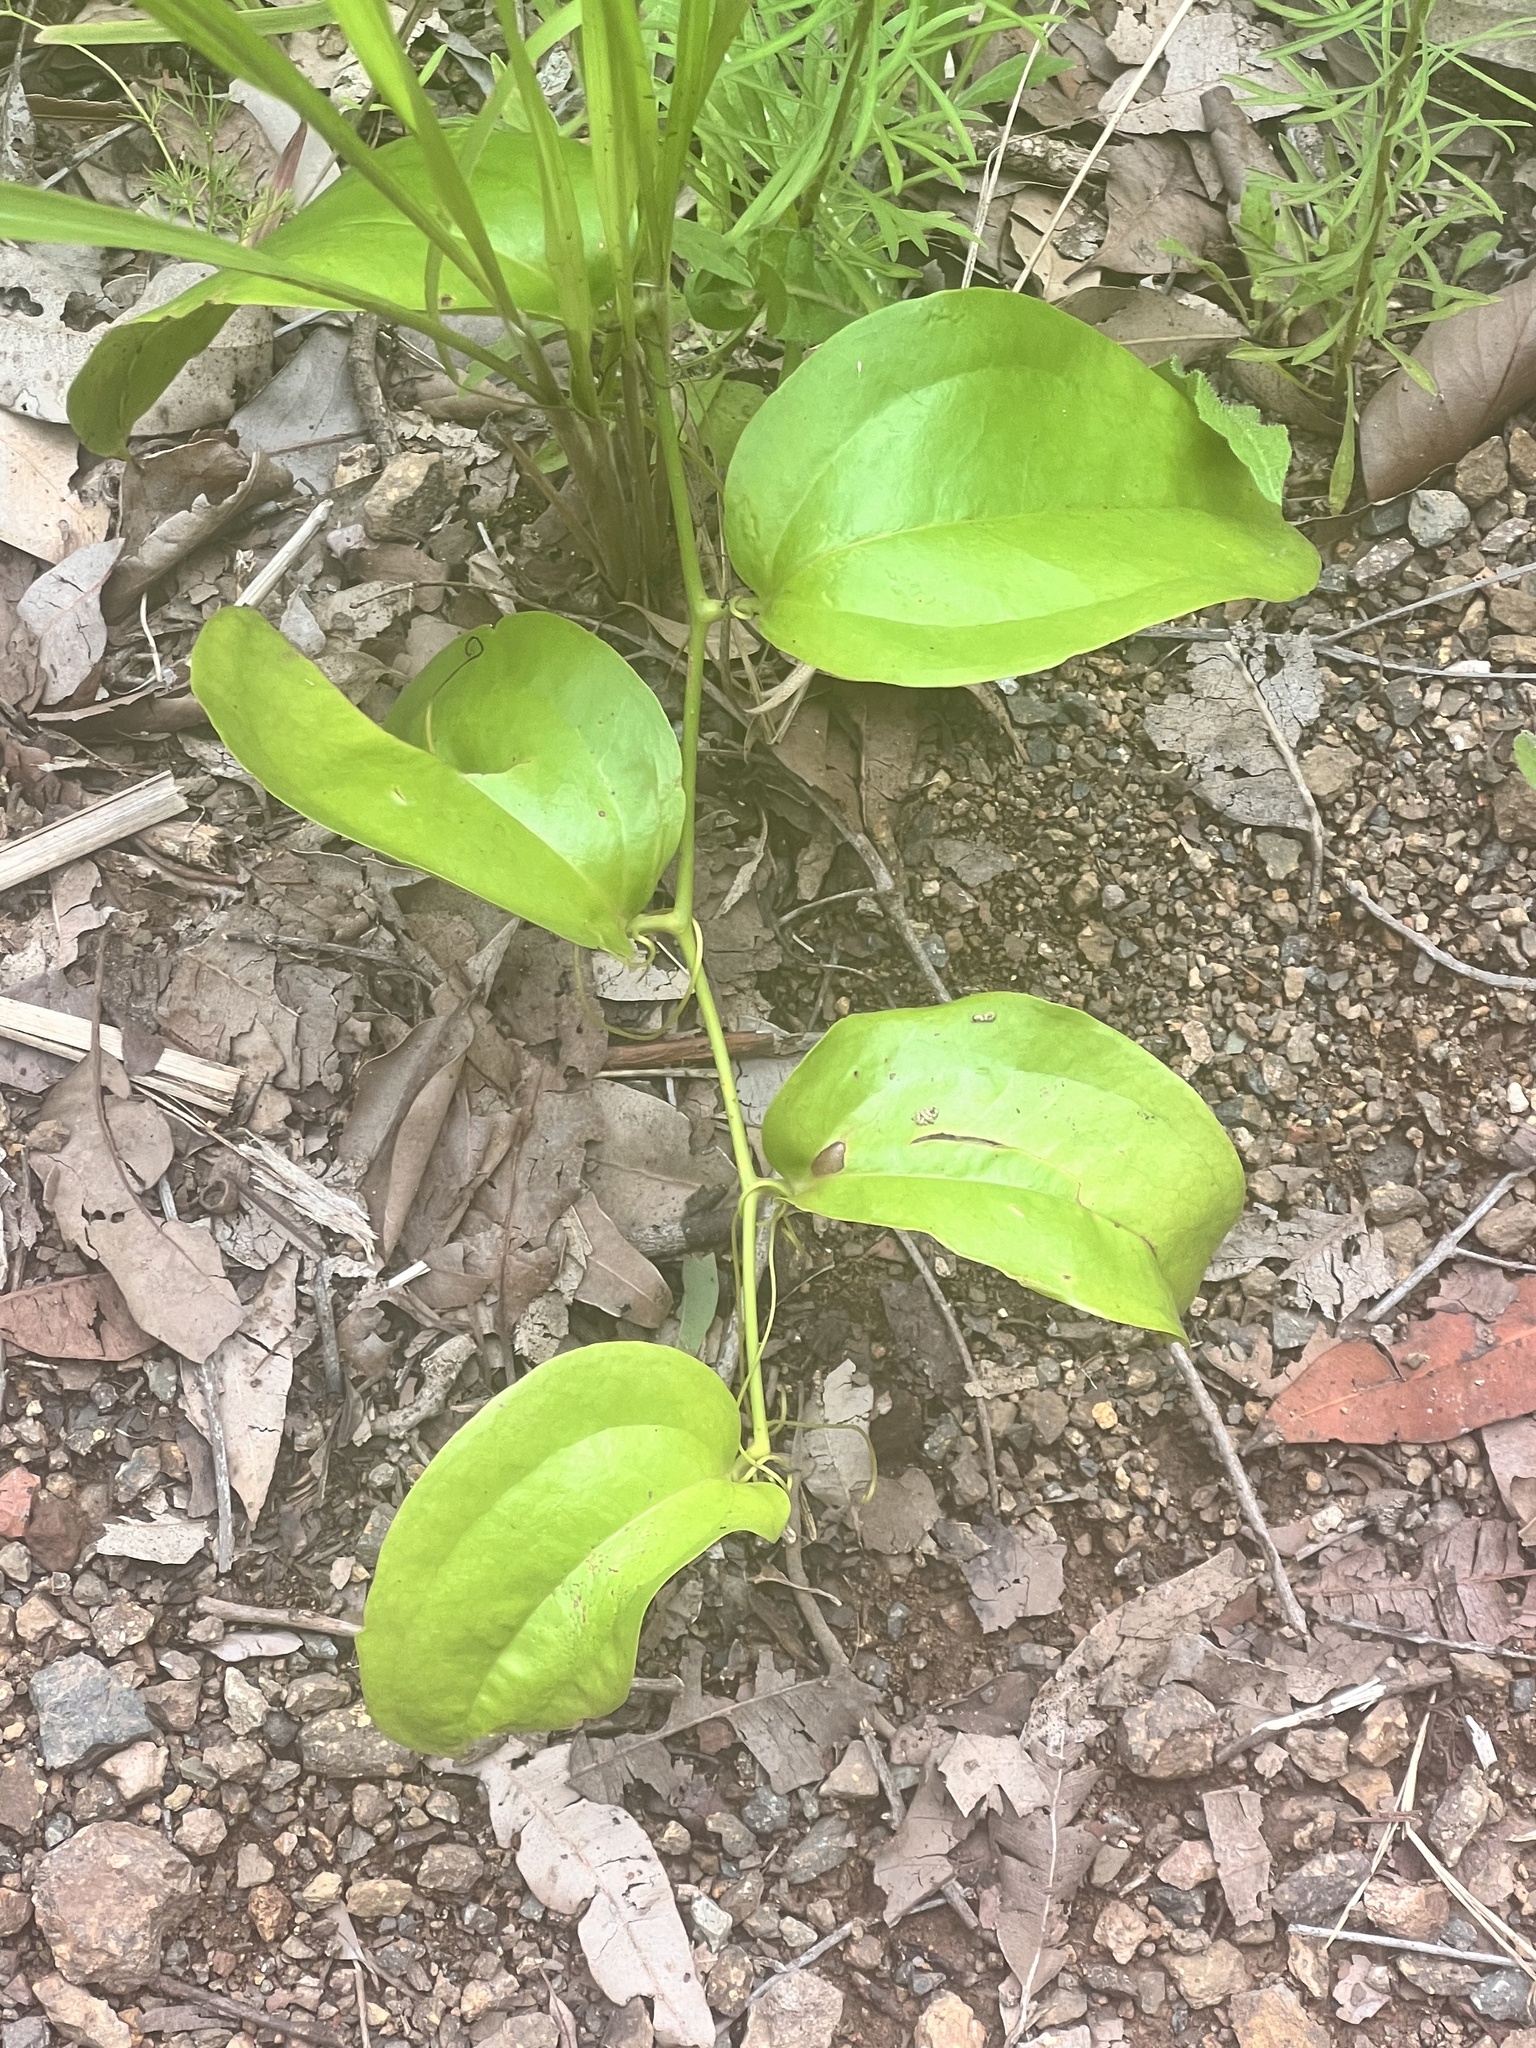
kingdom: Plantae
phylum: Tracheophyta
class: Liliopsida
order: Liliales
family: Smilacaceae
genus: Smilax
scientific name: Smilax australis
